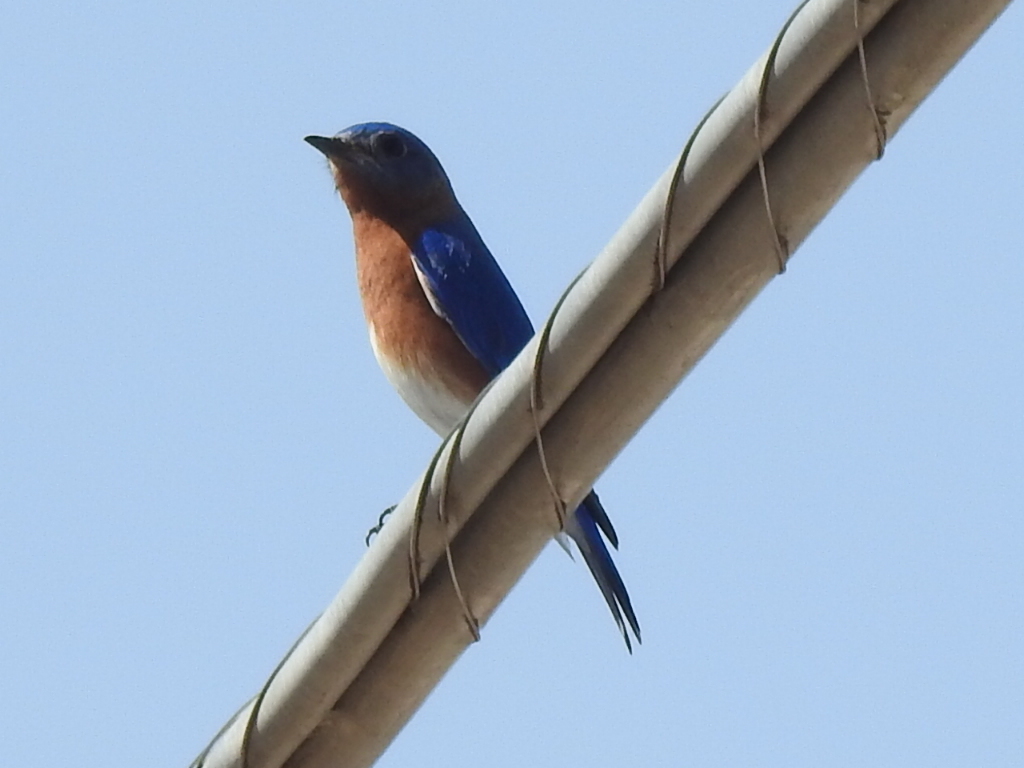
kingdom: Animalia
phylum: Chordata
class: Aves
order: Passeriformes
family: Turdidae
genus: Sialia
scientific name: Sialia sialis
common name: Eastern bluebird
